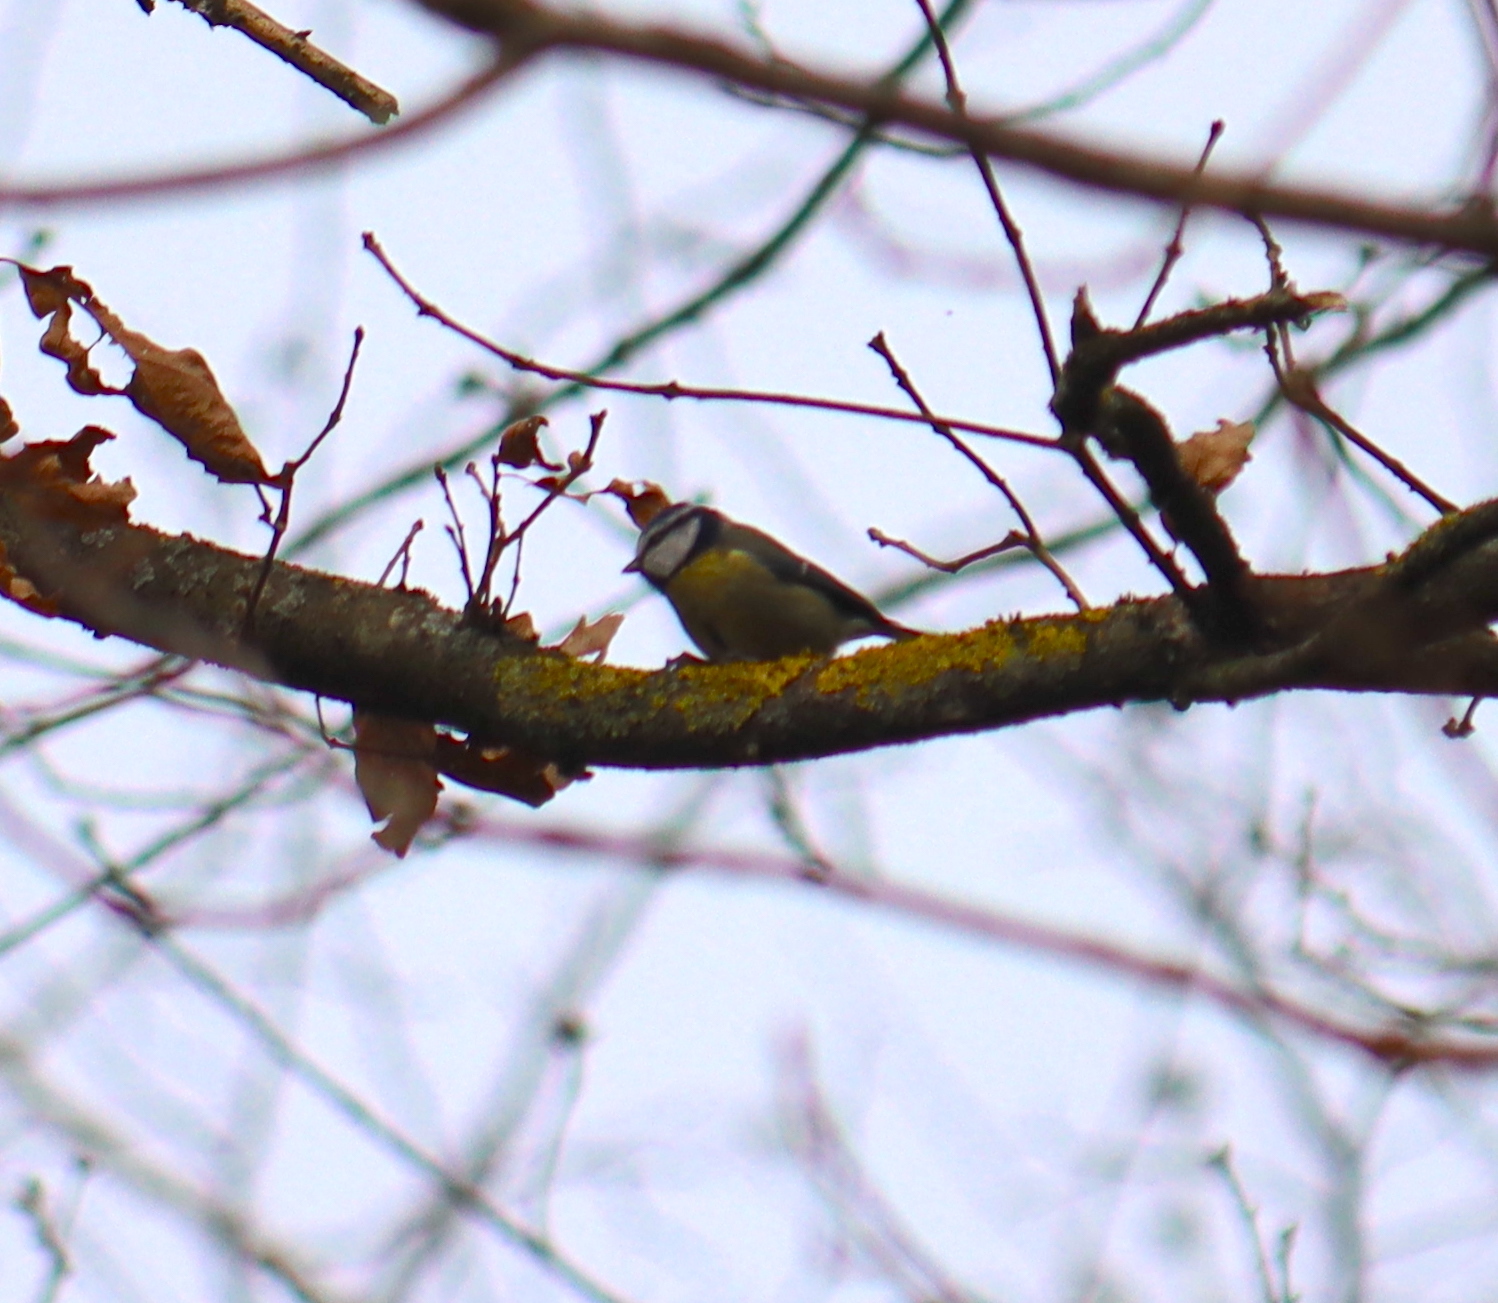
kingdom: Animalia
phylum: Chordata
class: Aves
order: Passeriformes
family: Paridae
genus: Cyanistes
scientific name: Cyanistes caeruleus
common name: Eurasian blue tit
